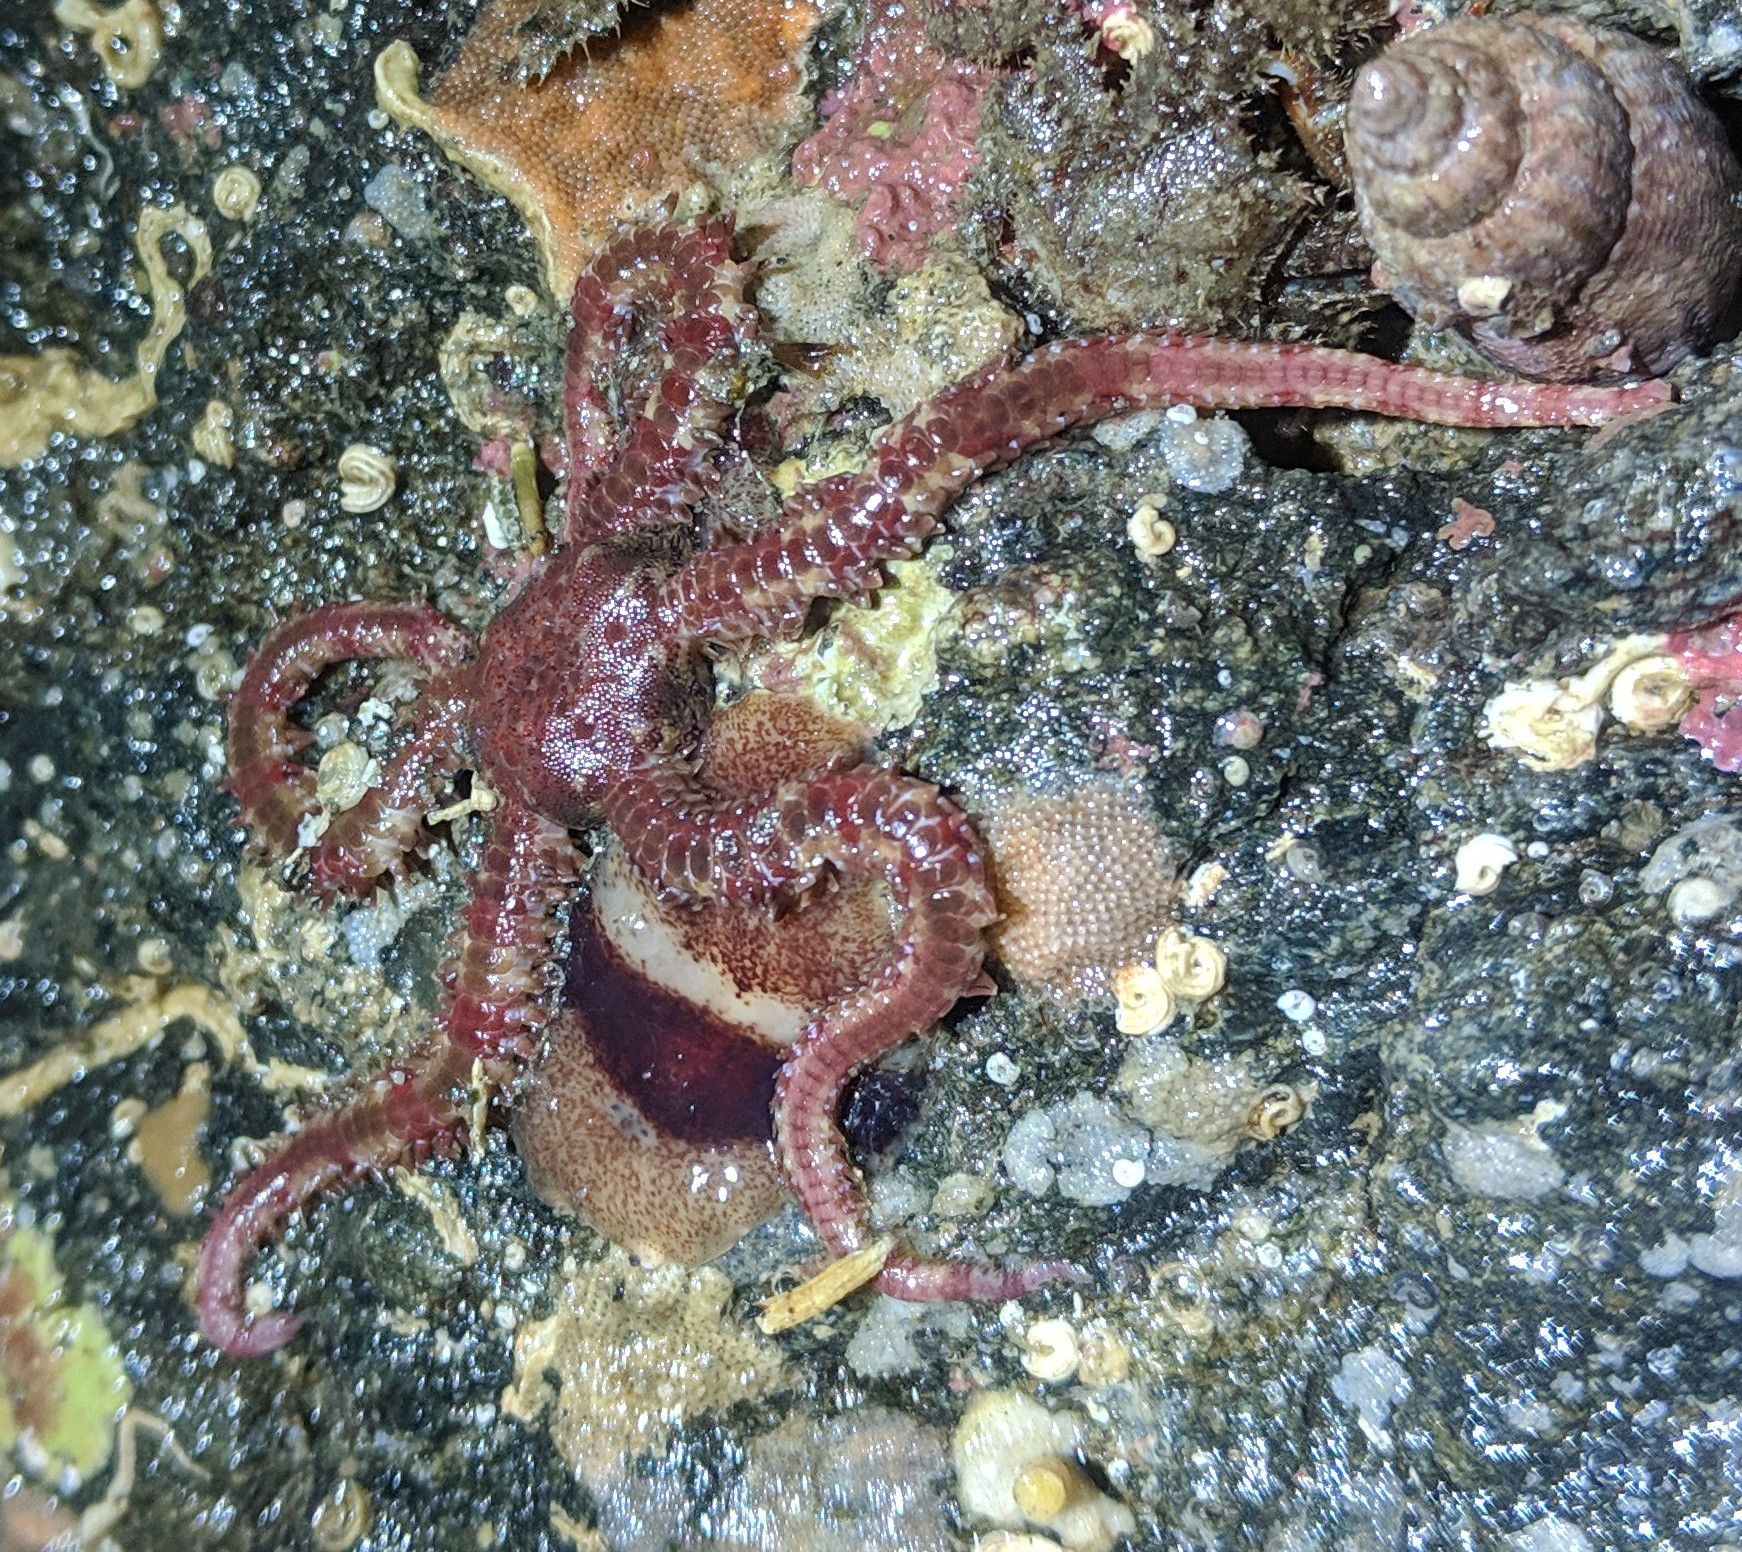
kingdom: Animalia
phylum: Echinodermata
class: Ophiuroidea
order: Amphilepidida
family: Ophiopholidae
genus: Ophiopholis
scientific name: Ophiopholis kennerlyi
